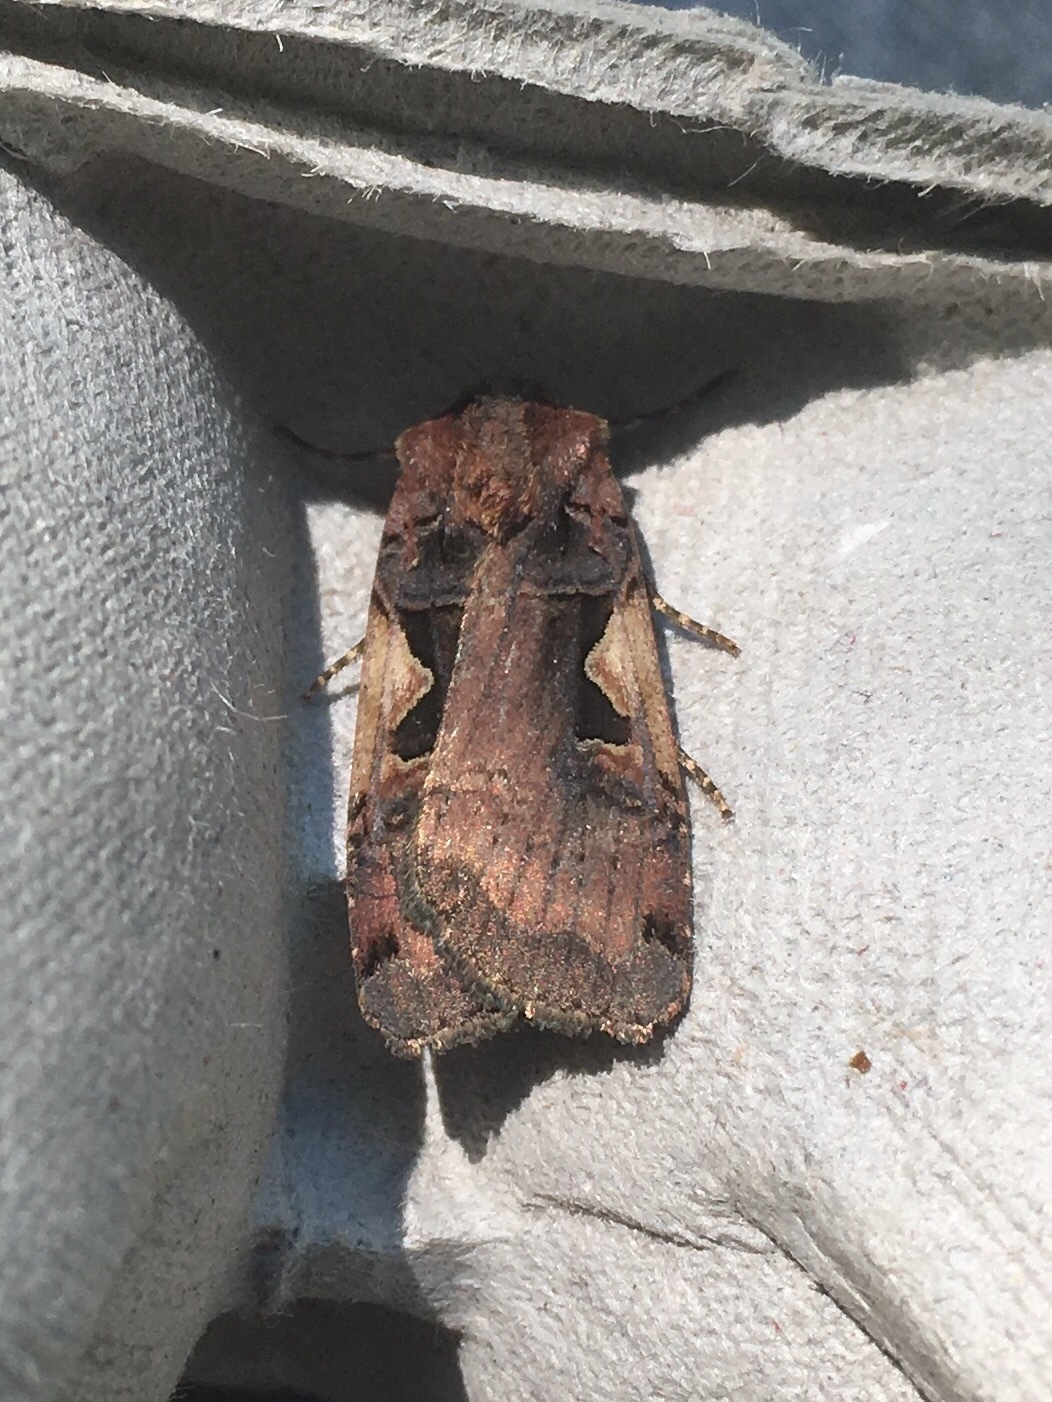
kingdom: Animalia
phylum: Arthropoda
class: Insecta
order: Lepidoptera
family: Noctuidae
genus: Xestia
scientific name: Xestia
